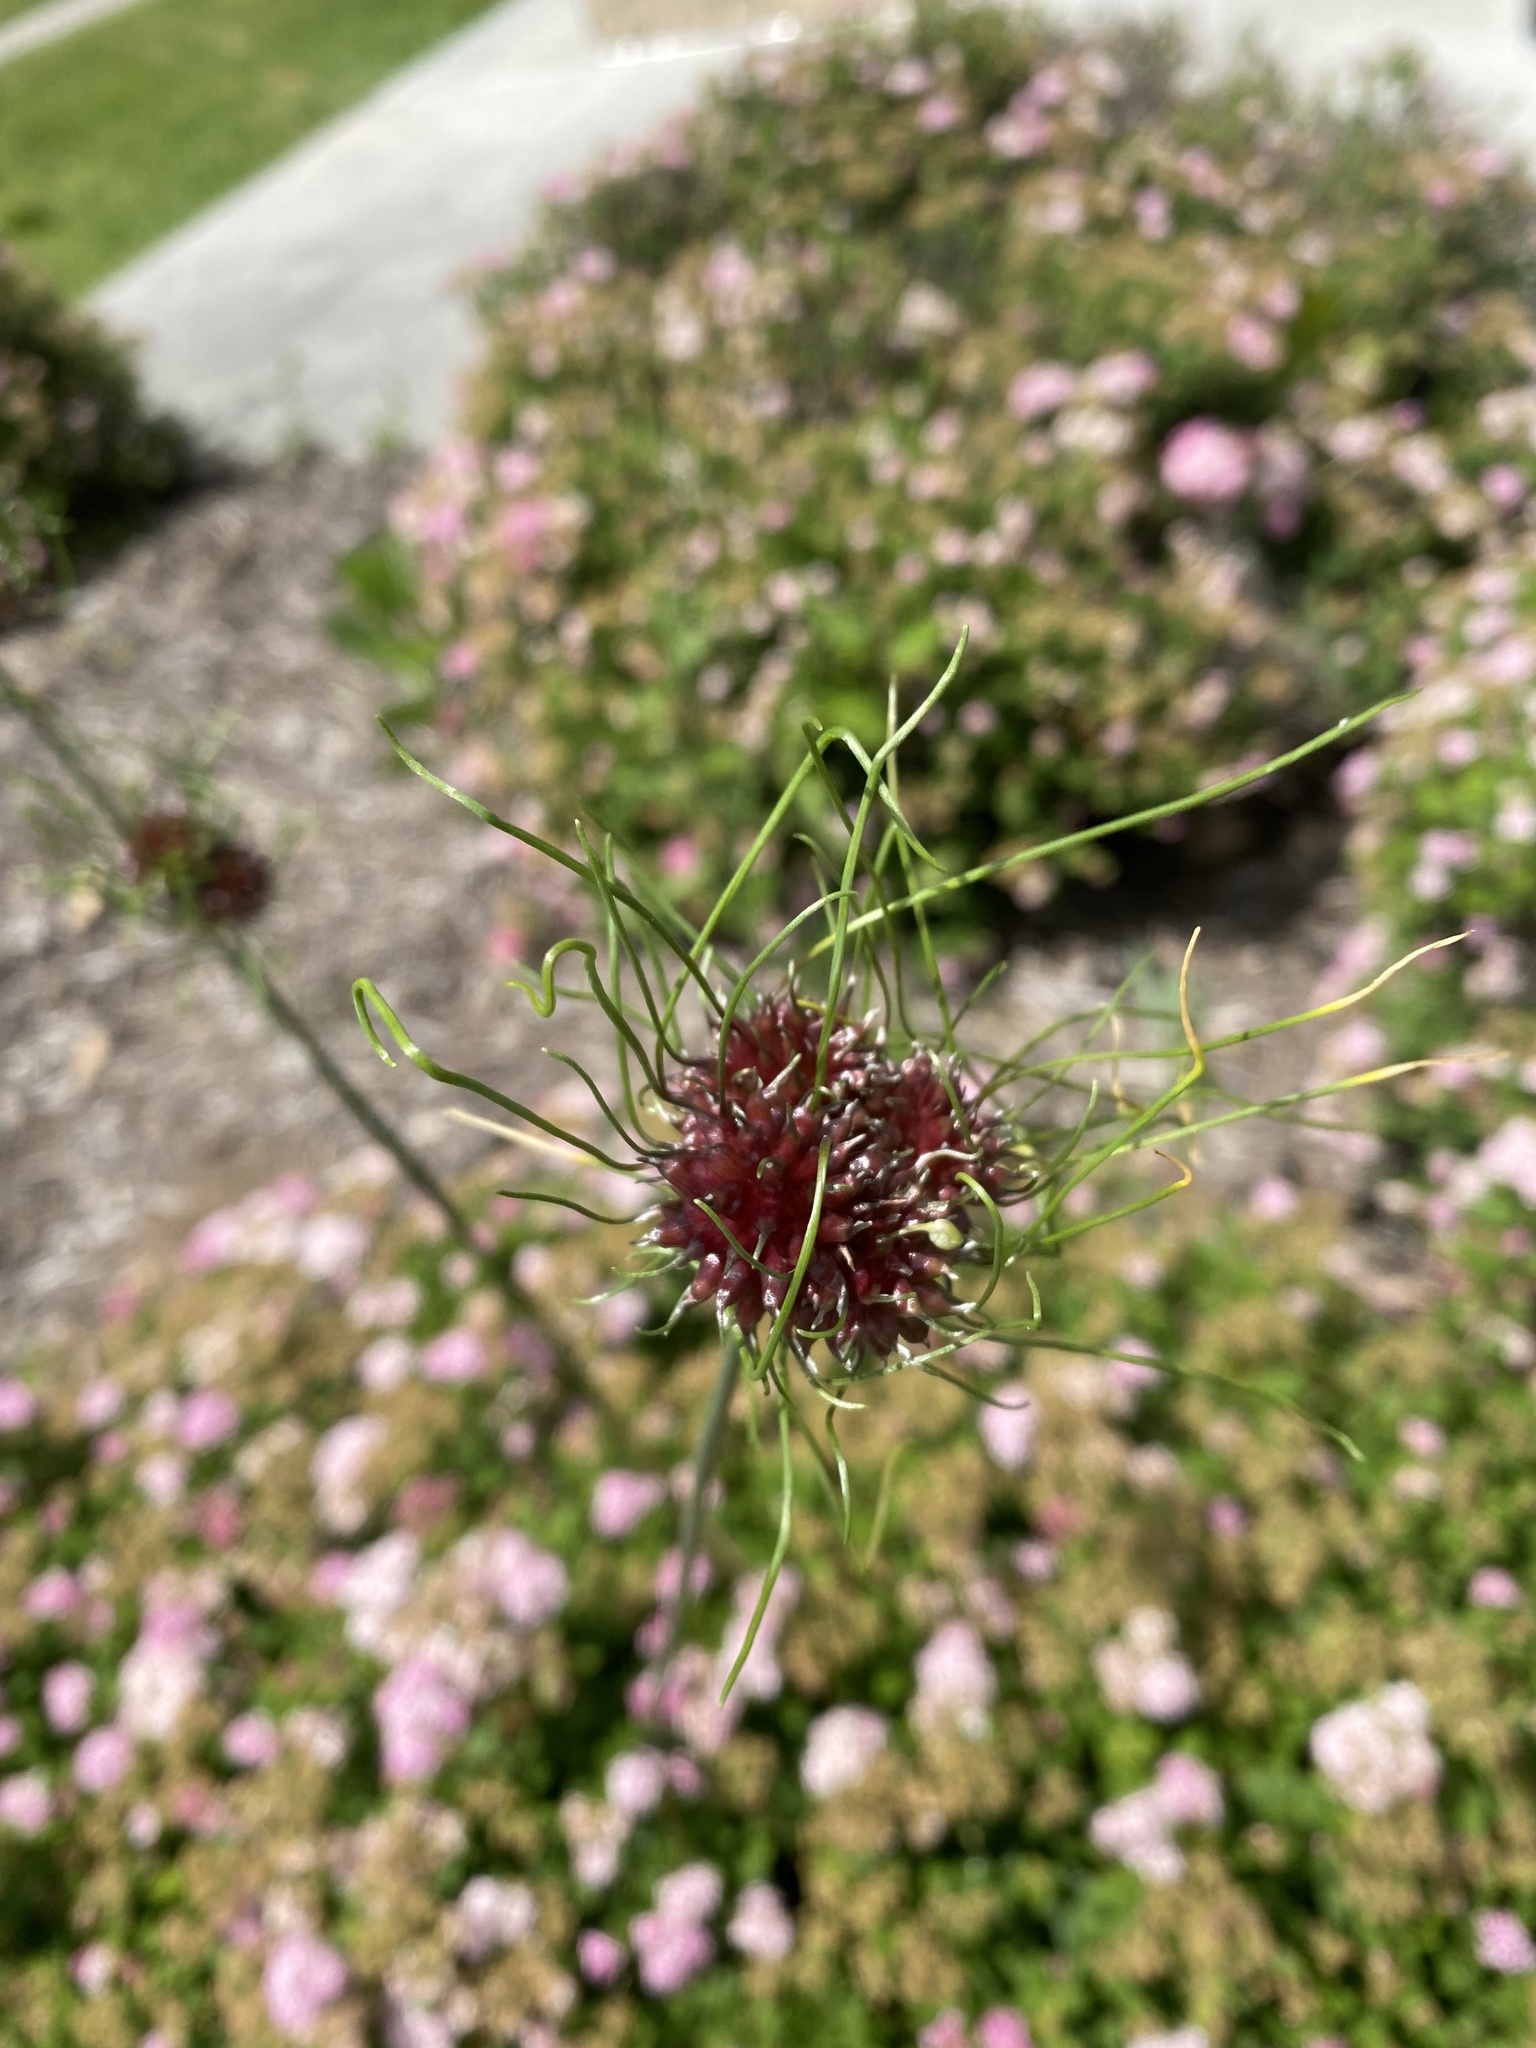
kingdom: Plantae
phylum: Tracheophyta
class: Liliopsida
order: Asparagales
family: Amaryllidaceae
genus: Allium
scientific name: Allium vineale
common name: Crow garlic
